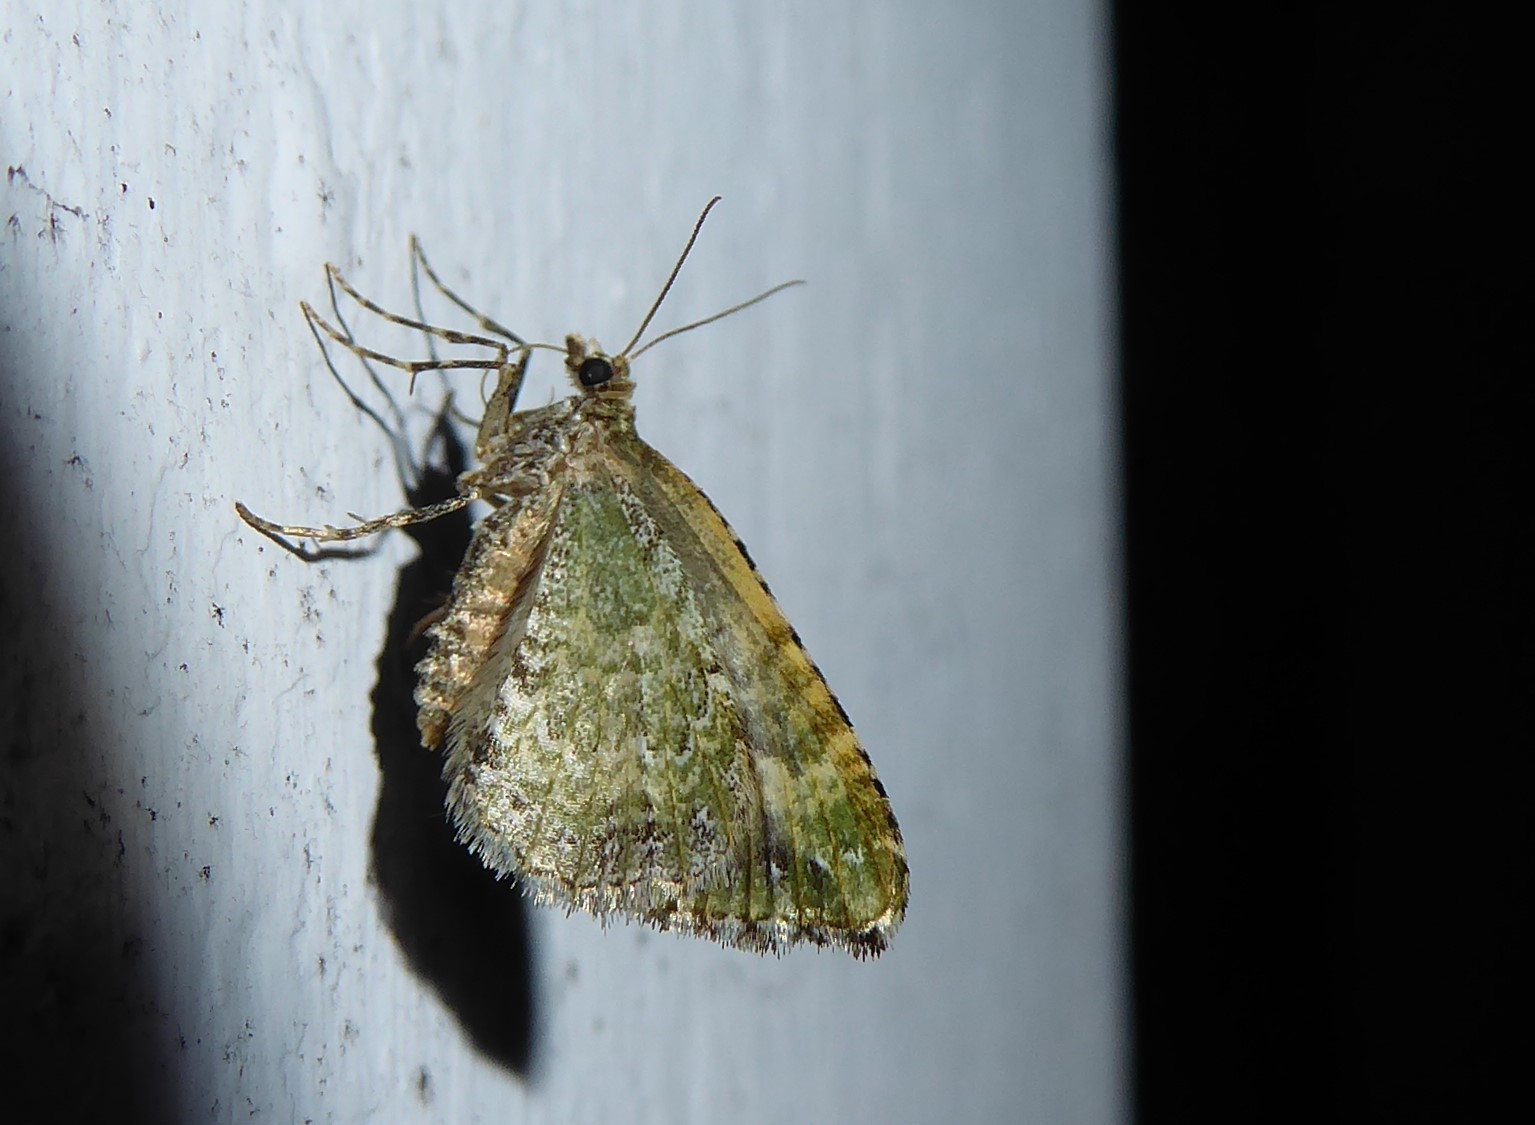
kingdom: Animalia
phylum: Arthropoda
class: Insecta
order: Lepidoptera
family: Geometridae
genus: Asaphodes
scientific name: Asaphodes beata
